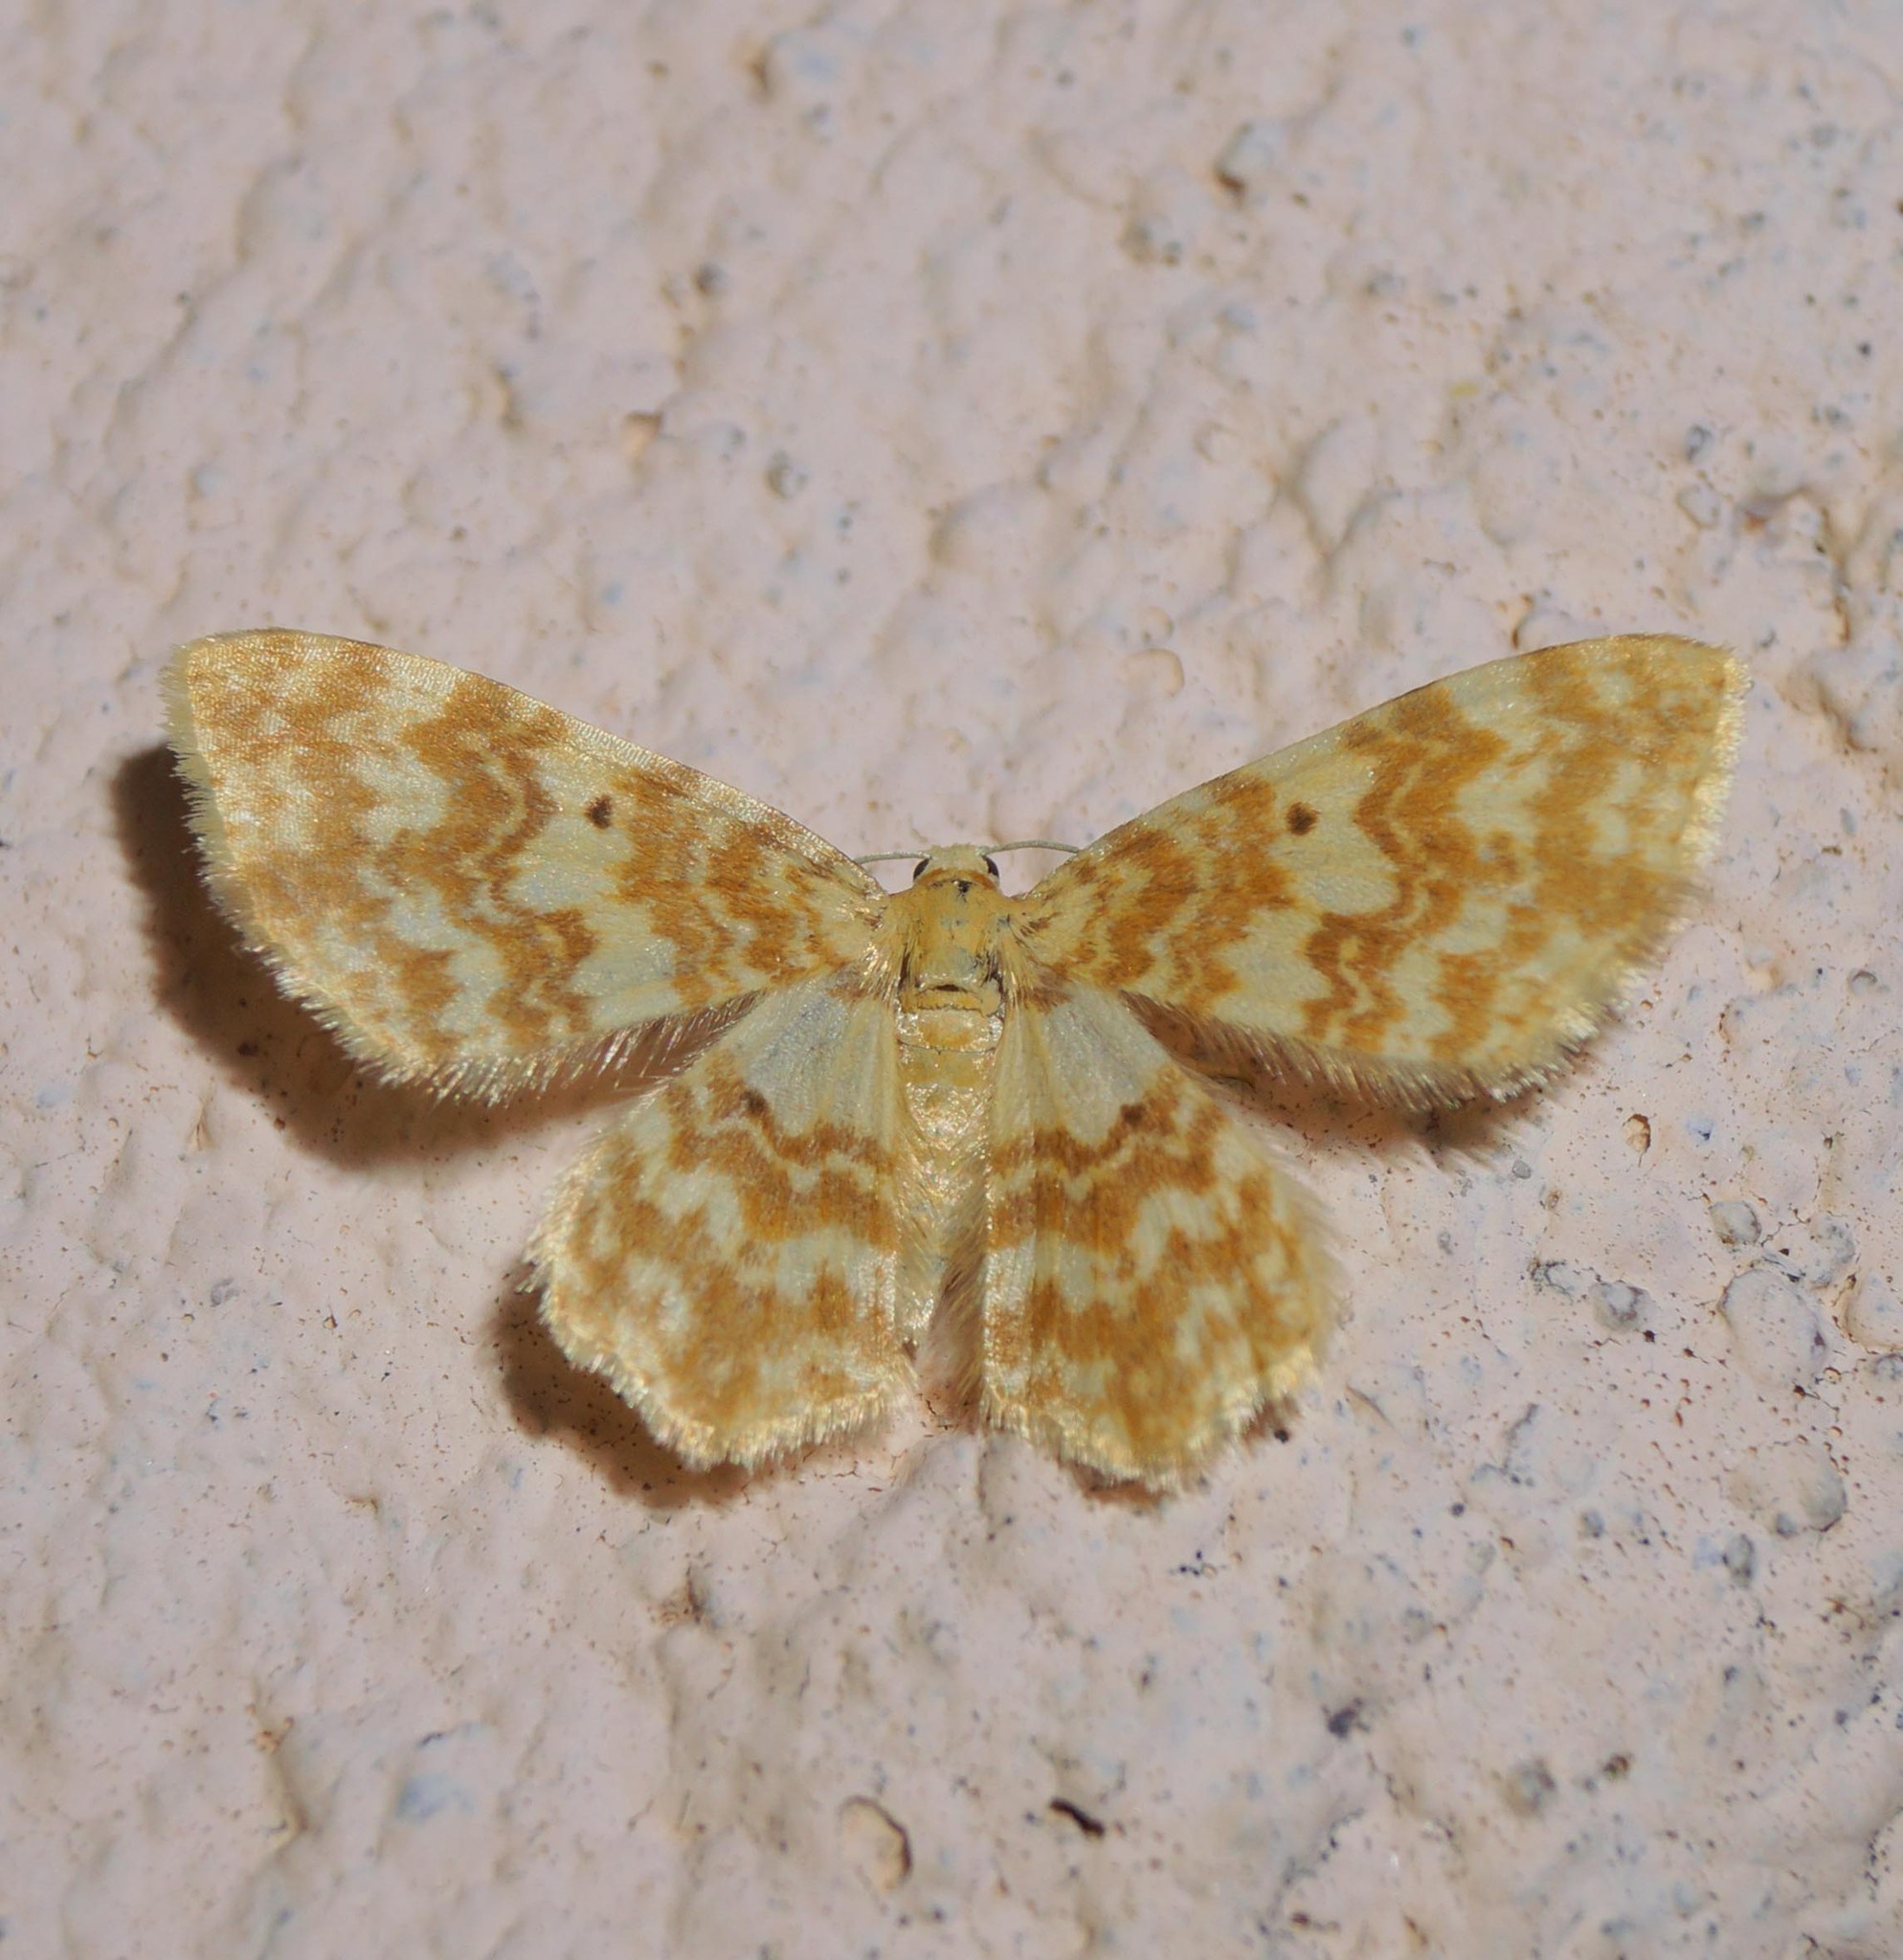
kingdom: Animalia
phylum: Arthropoda
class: Insecta
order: Lepidoptera
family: Geometridae
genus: Hydrelia
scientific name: Hydrelia flammeolaria
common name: Small yellow wave
